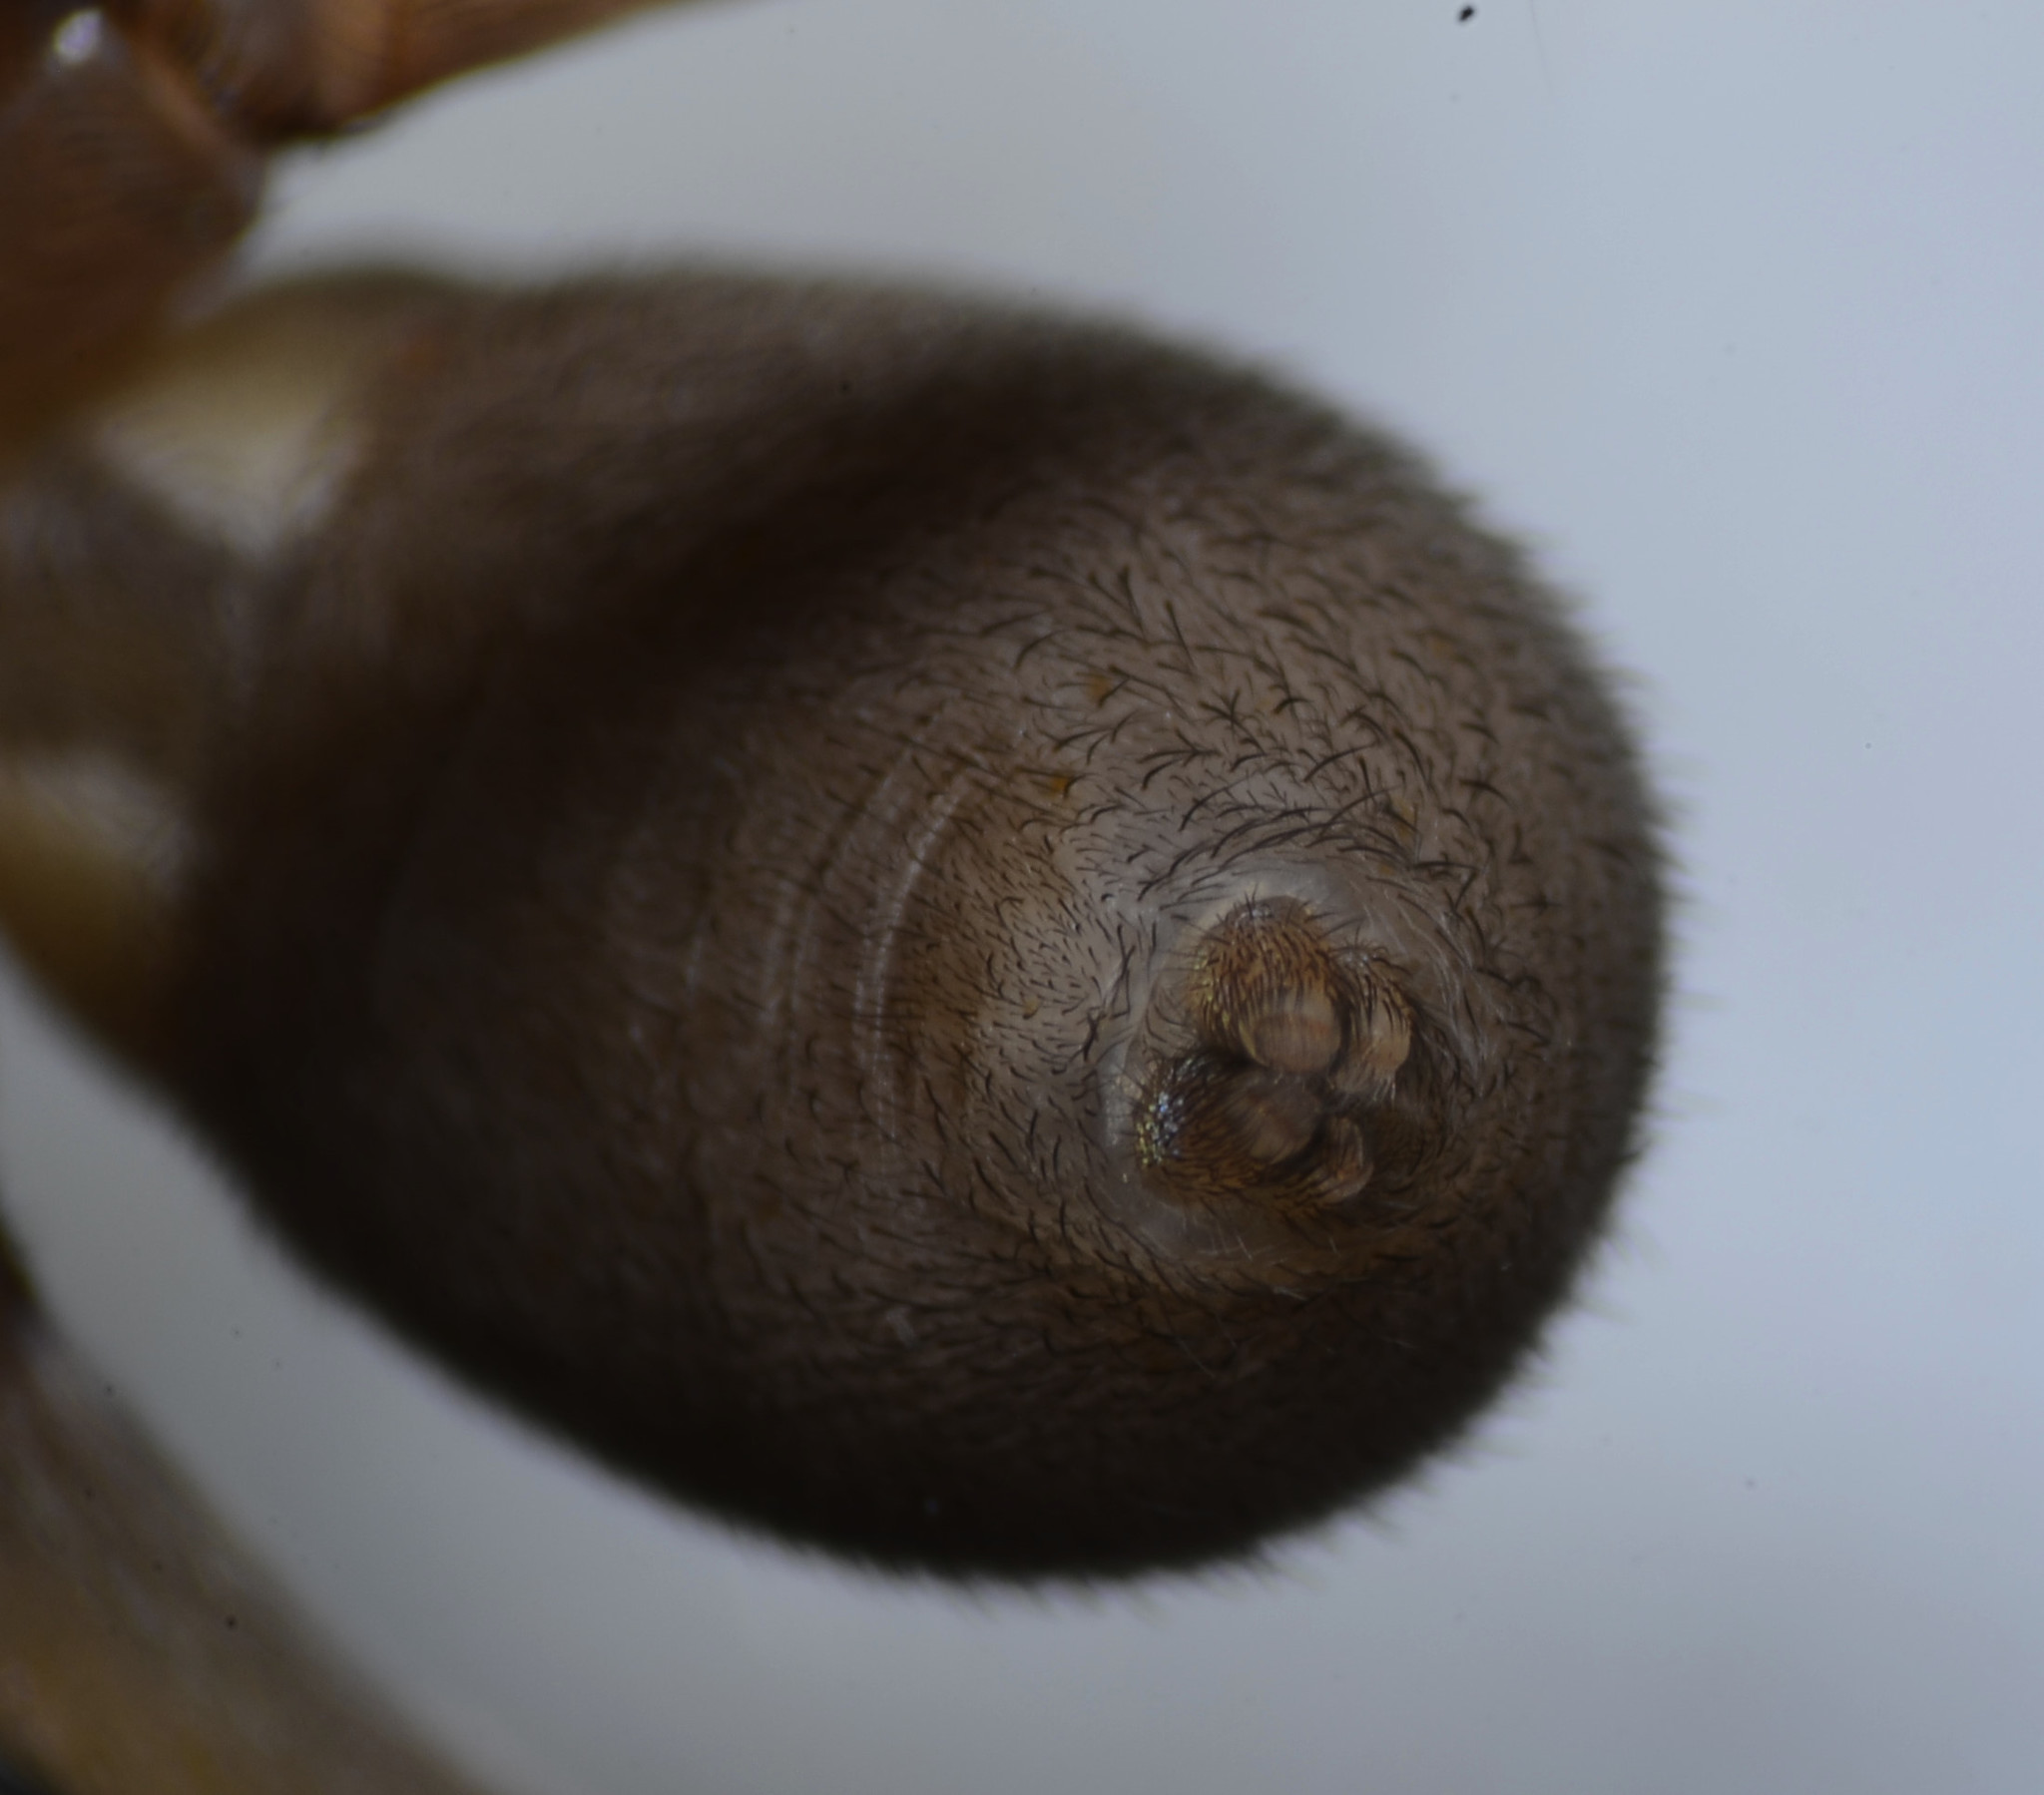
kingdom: Animalia
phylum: Arthropoda
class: Arachnida
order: Araneae
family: Zoropsidae
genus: Titiotus
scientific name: Titiotus
